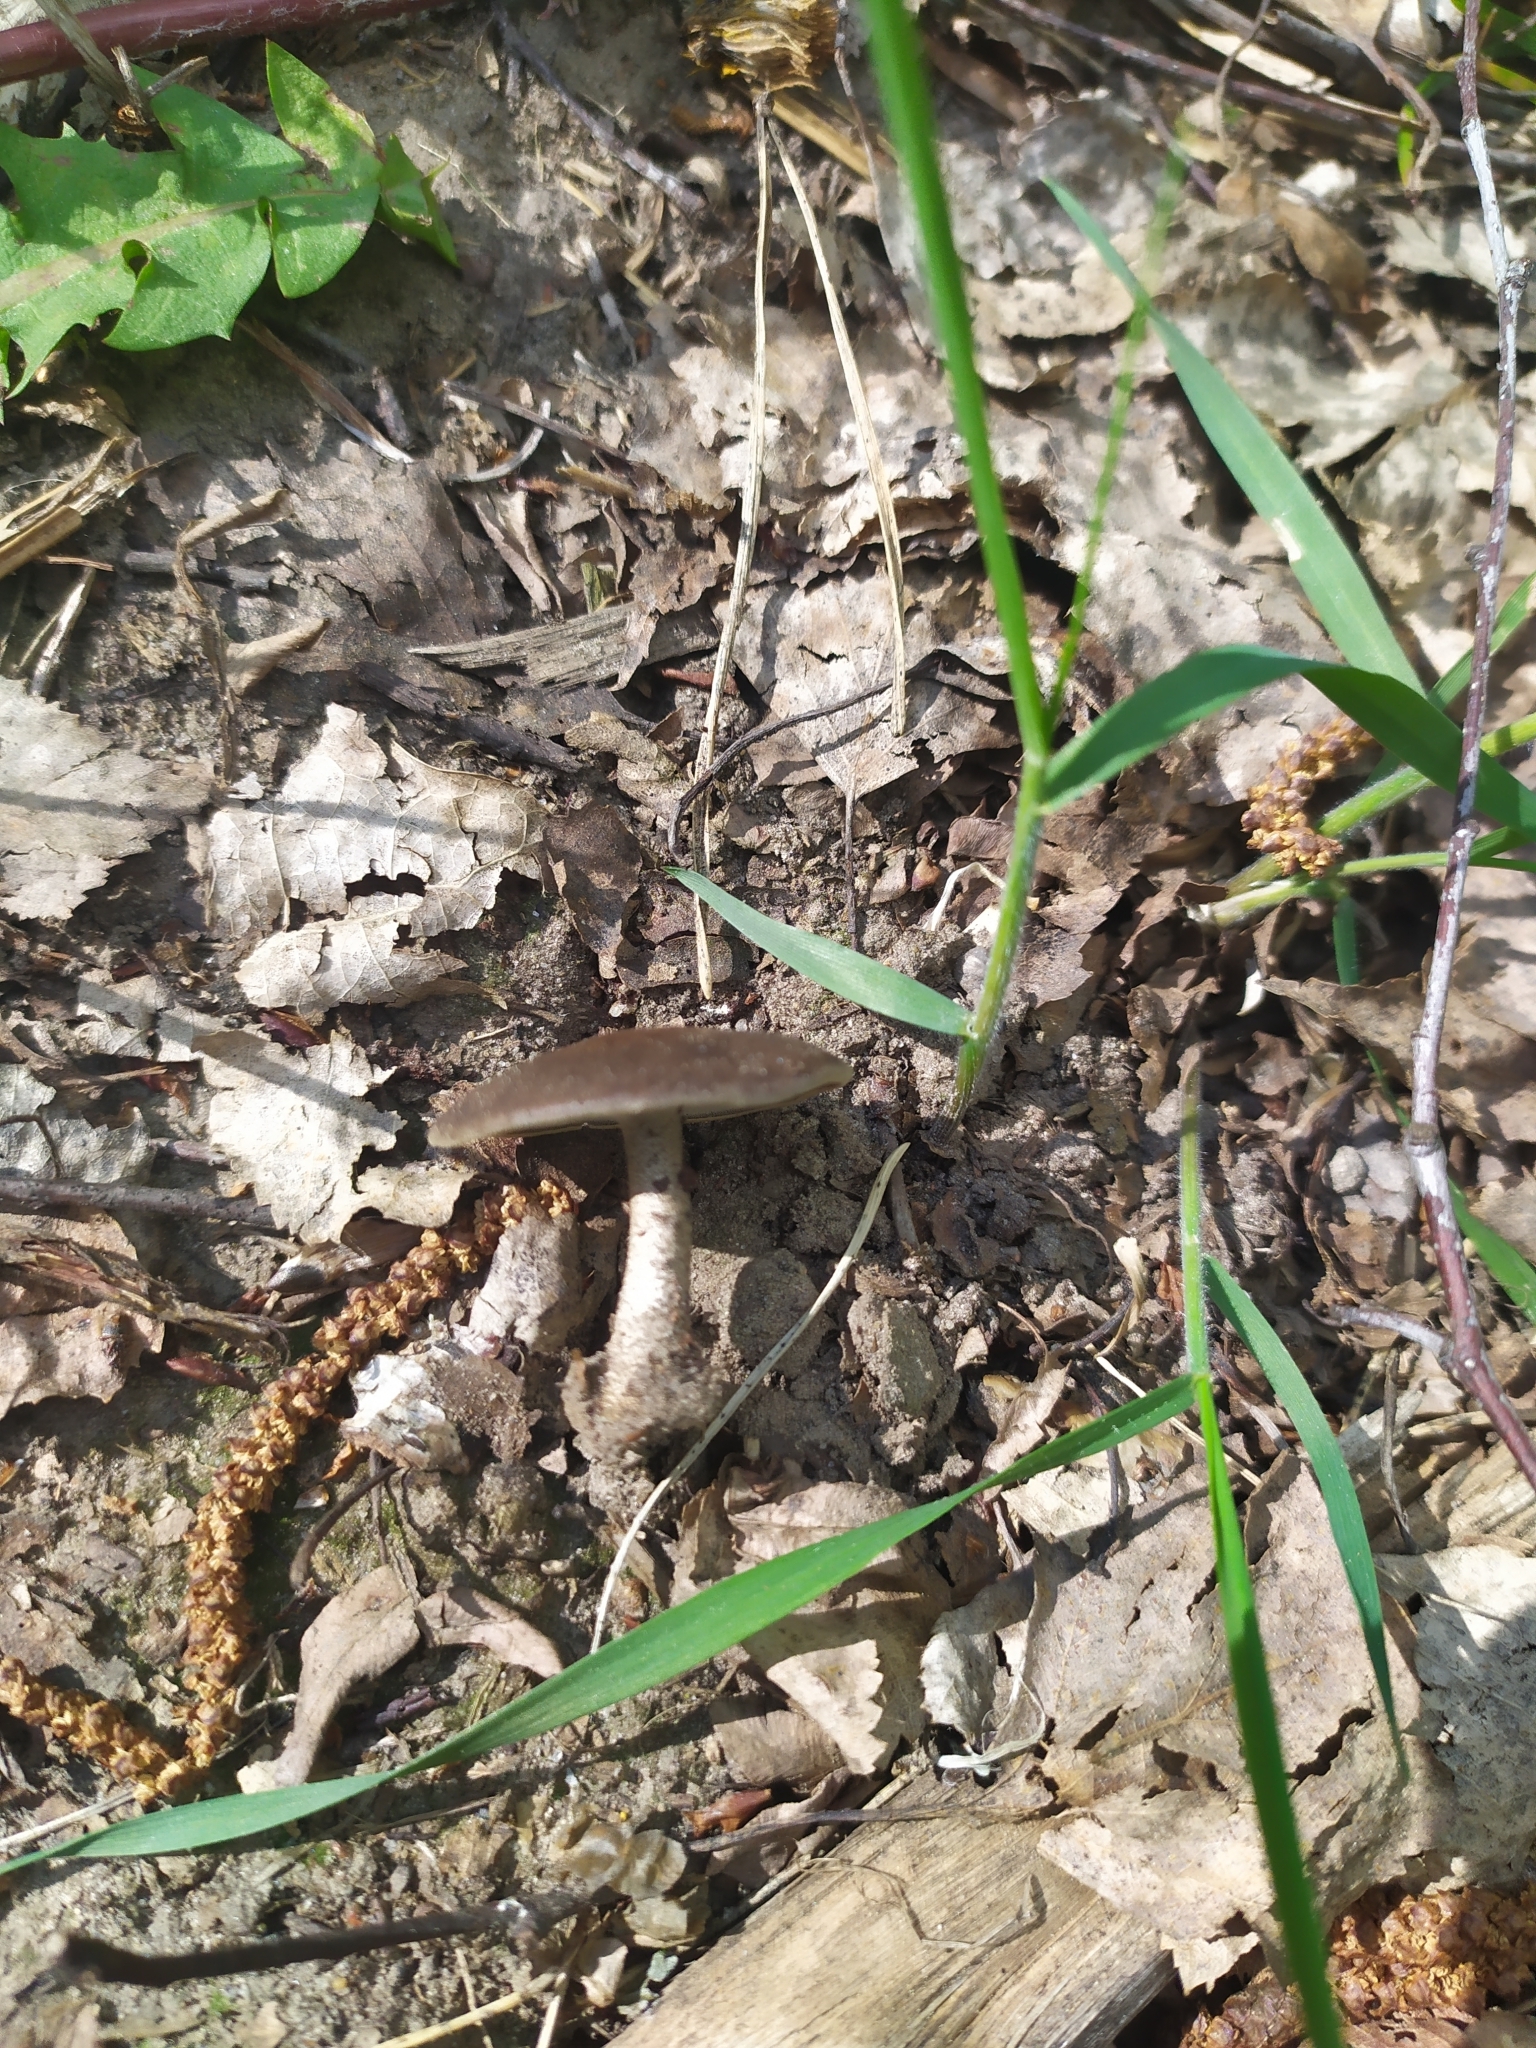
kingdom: Fungi
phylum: Basidiomycota
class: Agaricomycetes
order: Polyporales
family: Polyporaceae
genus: Lentinus
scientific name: Lentinus substrictus
